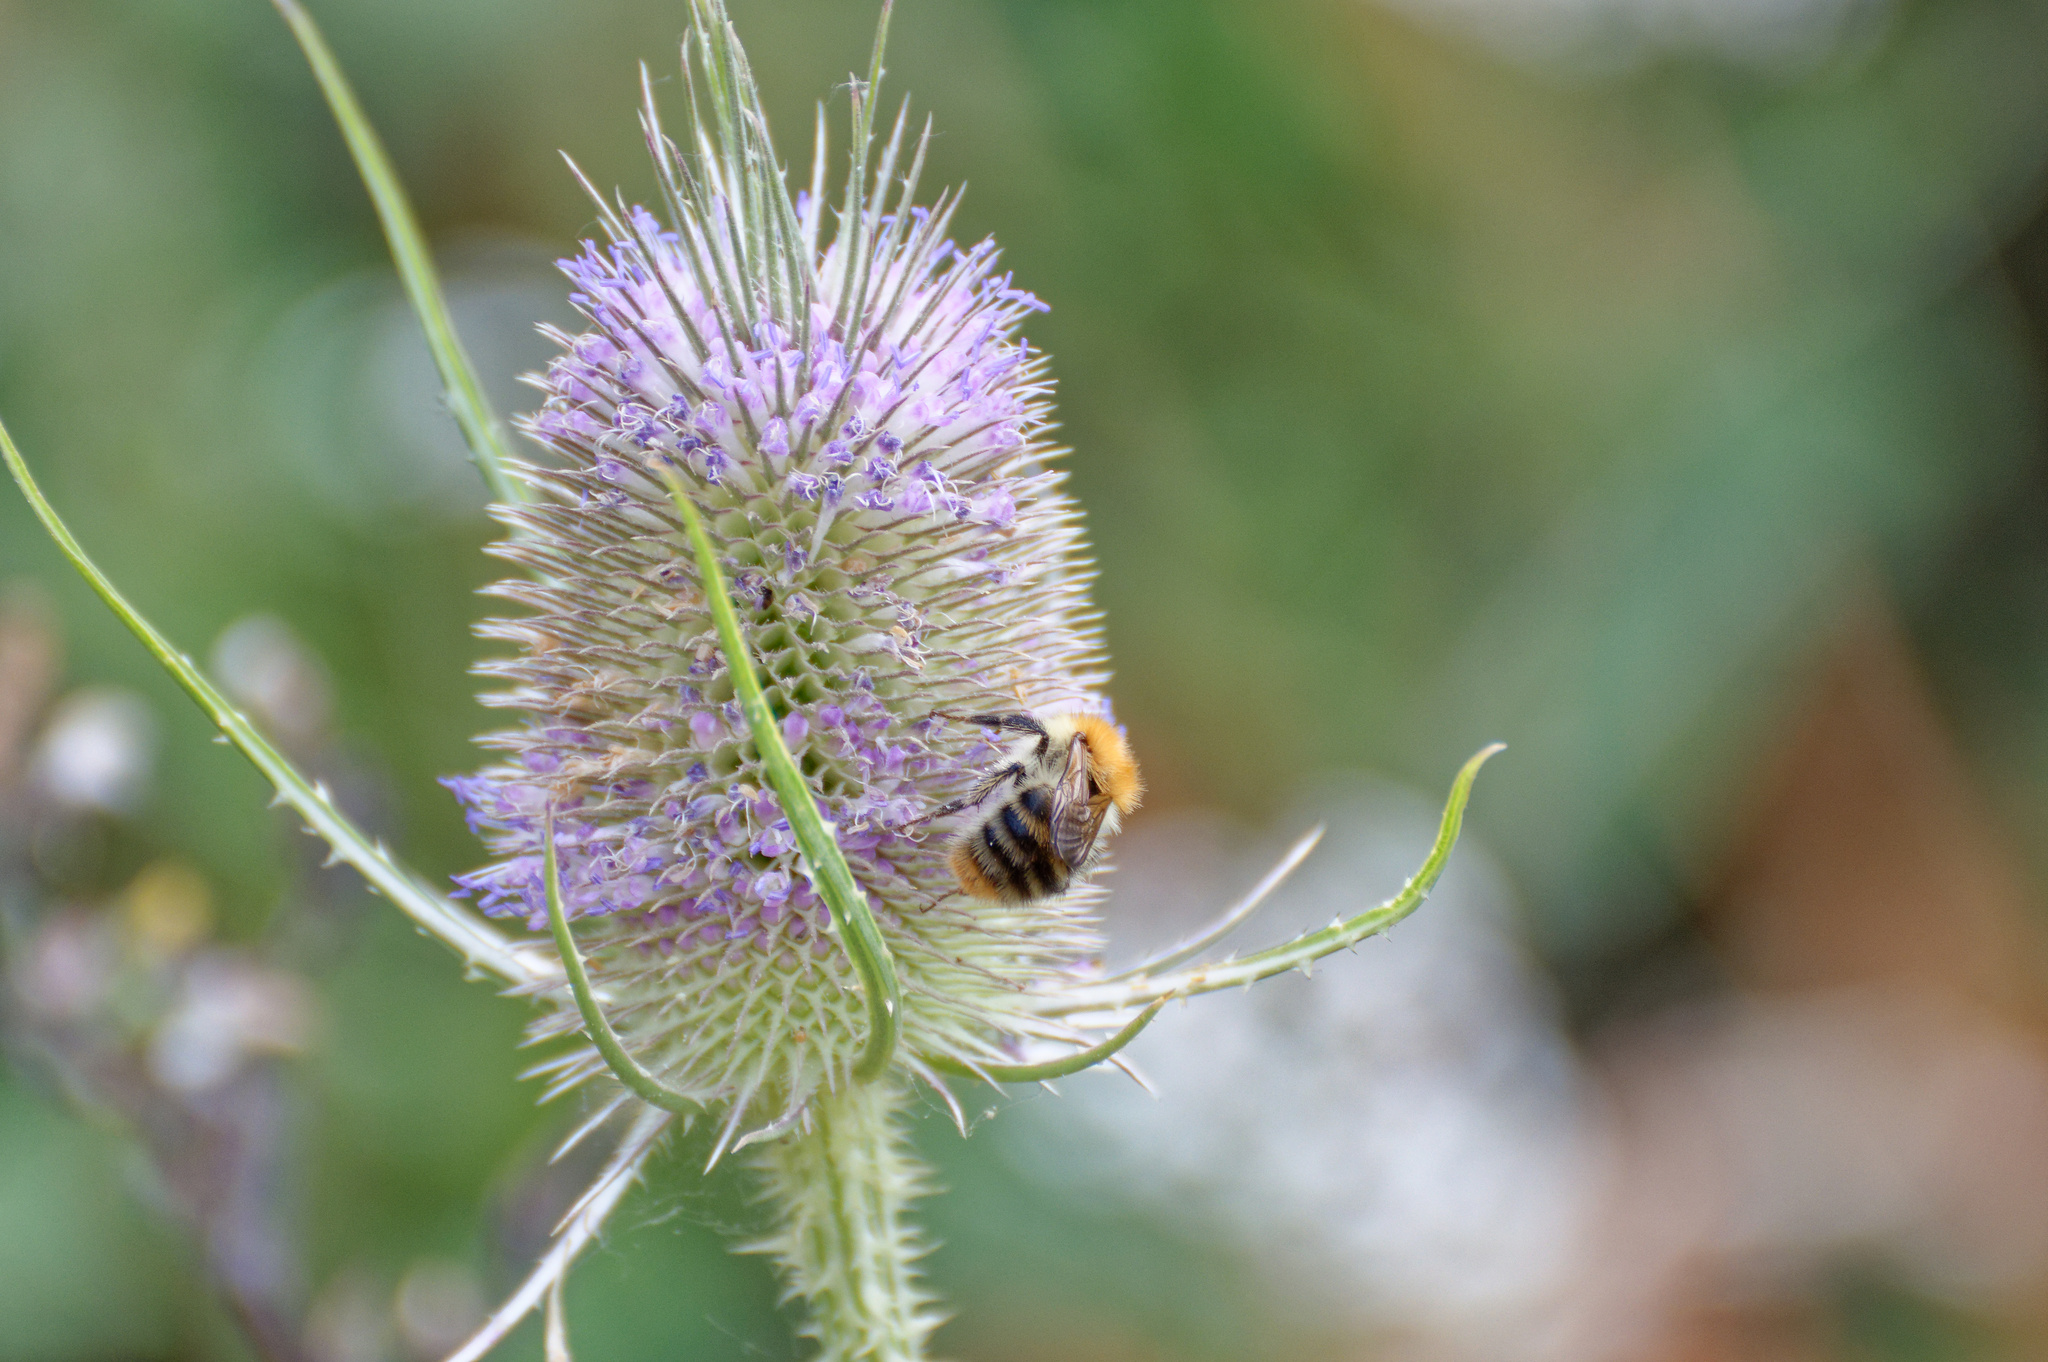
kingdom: Animalia
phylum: Arthropoda
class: Insecta
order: Hymenoptera
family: Apidae
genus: Bombus
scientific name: Bombus pascuorum
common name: Common carder bee
